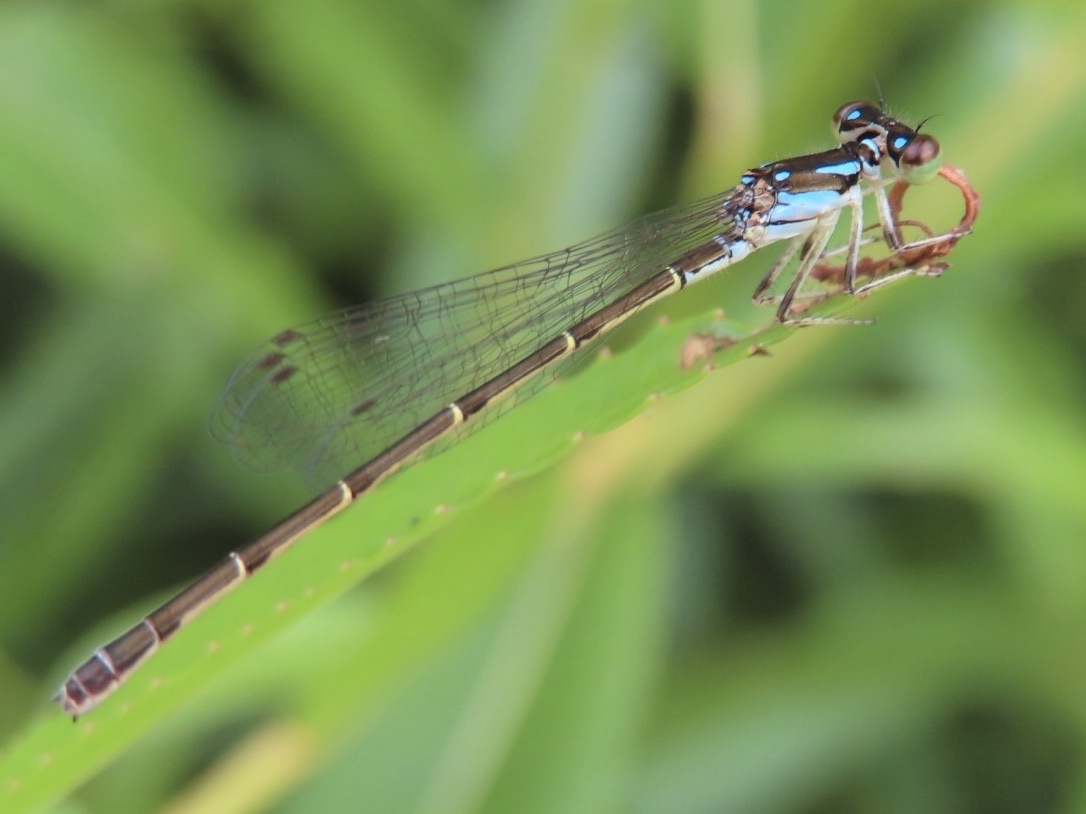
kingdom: Animalia
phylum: Arthropoda
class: Insecta
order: Odonata
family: Coenagrionidae
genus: Ischnura
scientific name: Ischnura posita
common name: Fragile forktail
